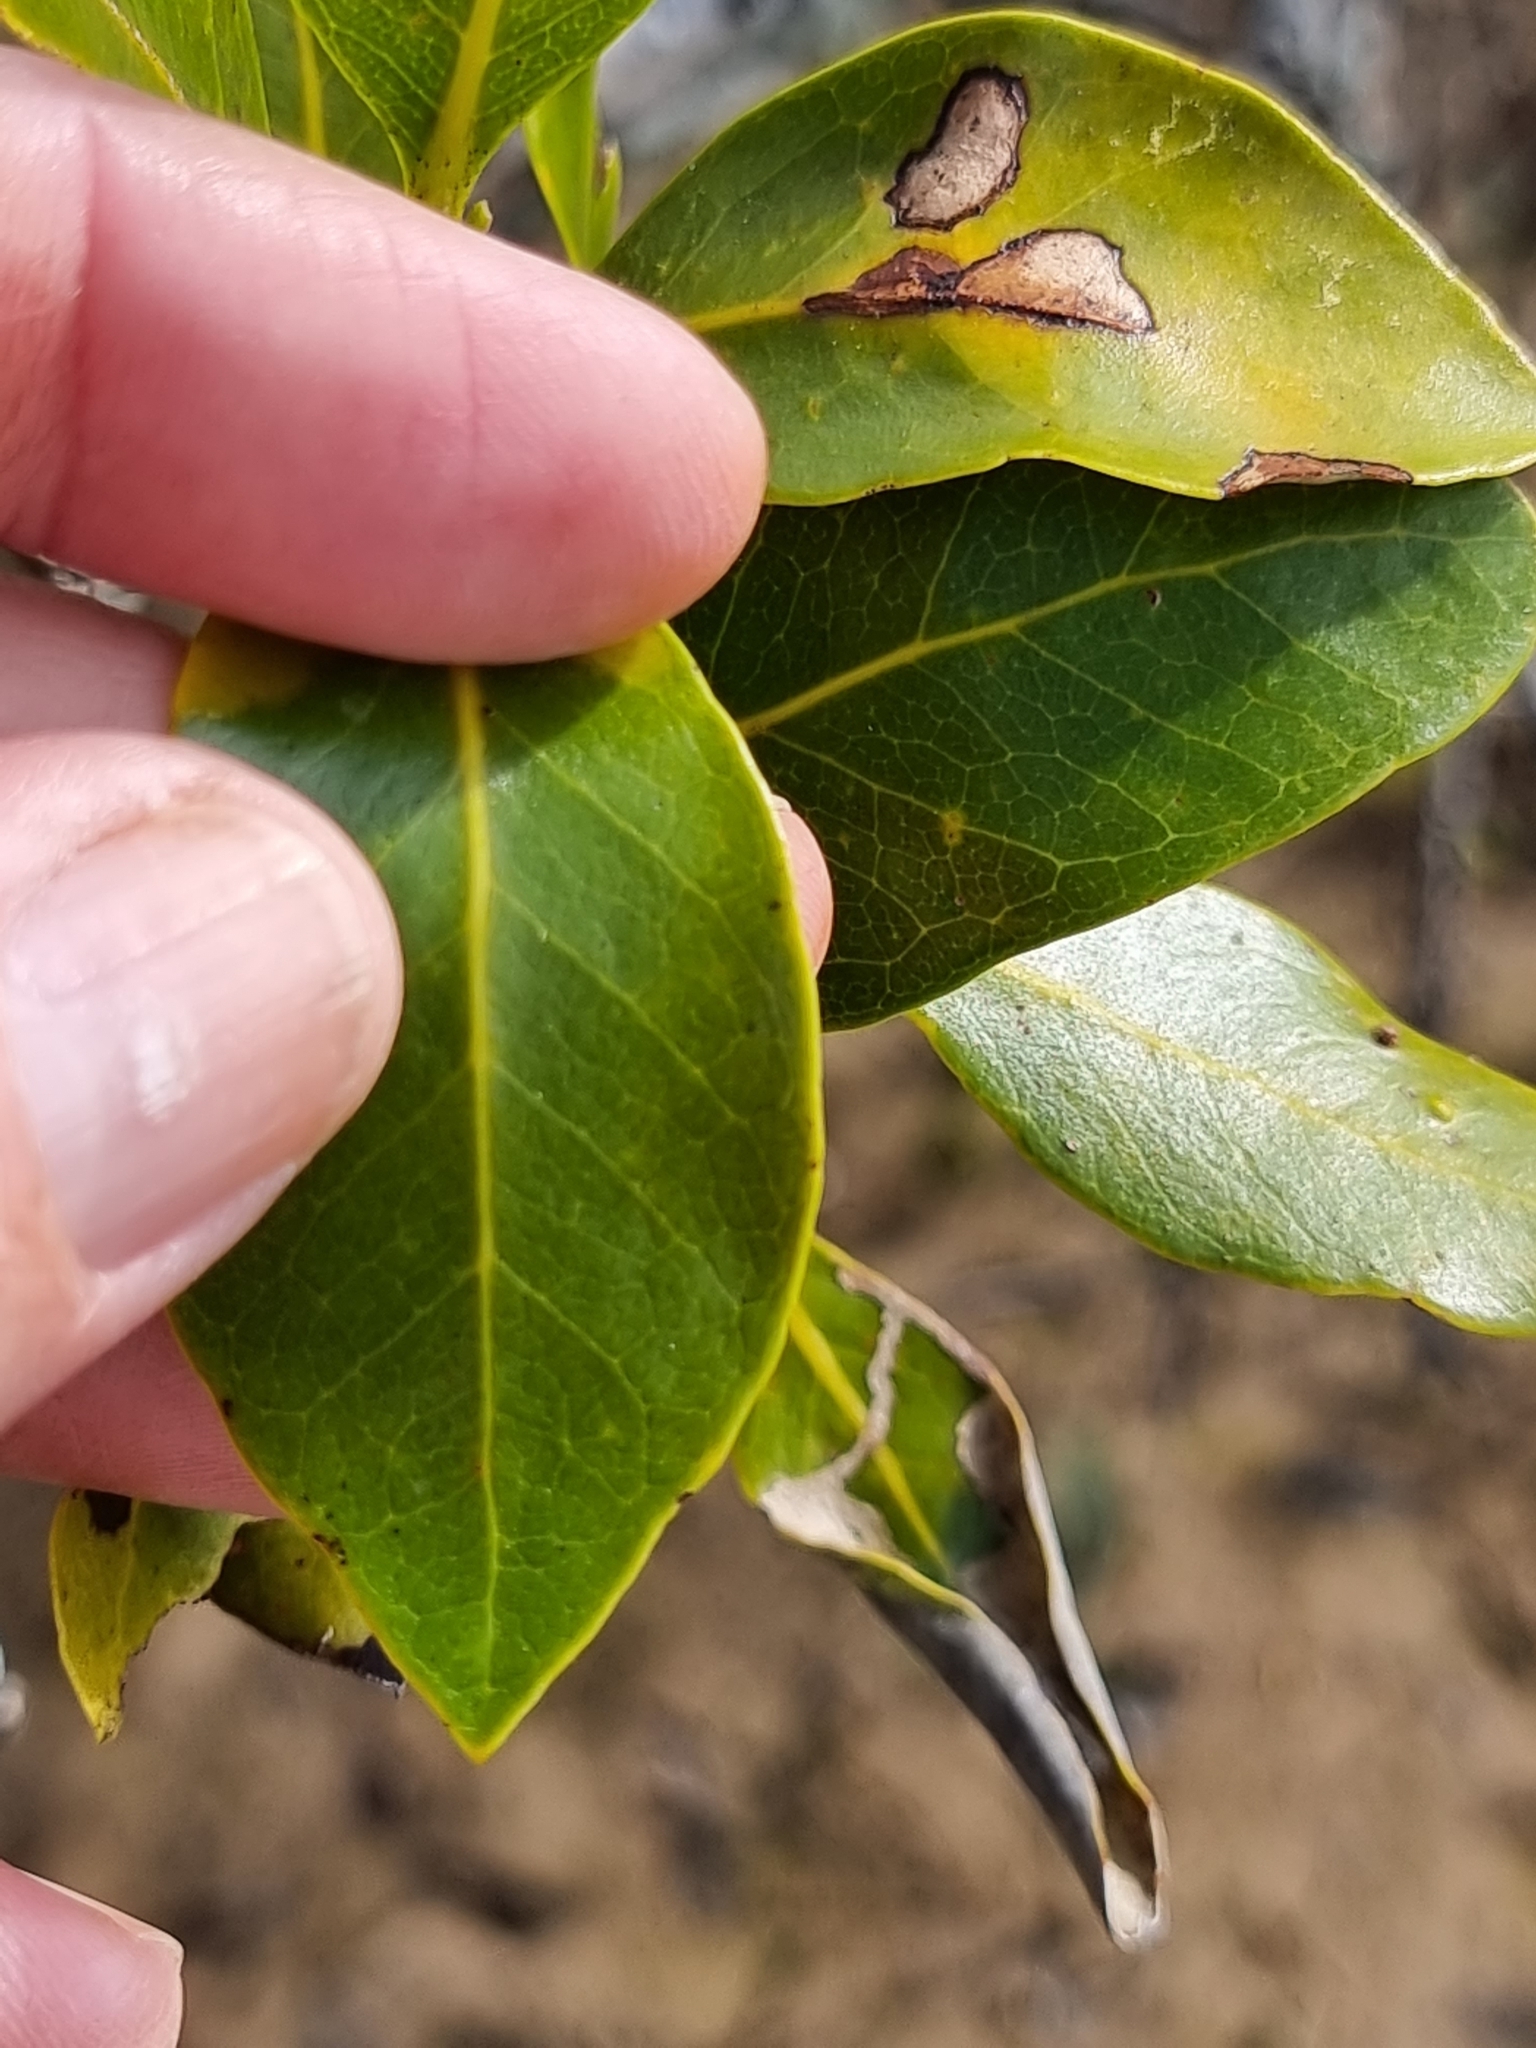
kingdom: Plantae
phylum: Tracheophyta
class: Magnoliopsida
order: Lamiales
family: Acanthaceae
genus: Avicennia
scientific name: Avicennia marina
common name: Gray mangrove
